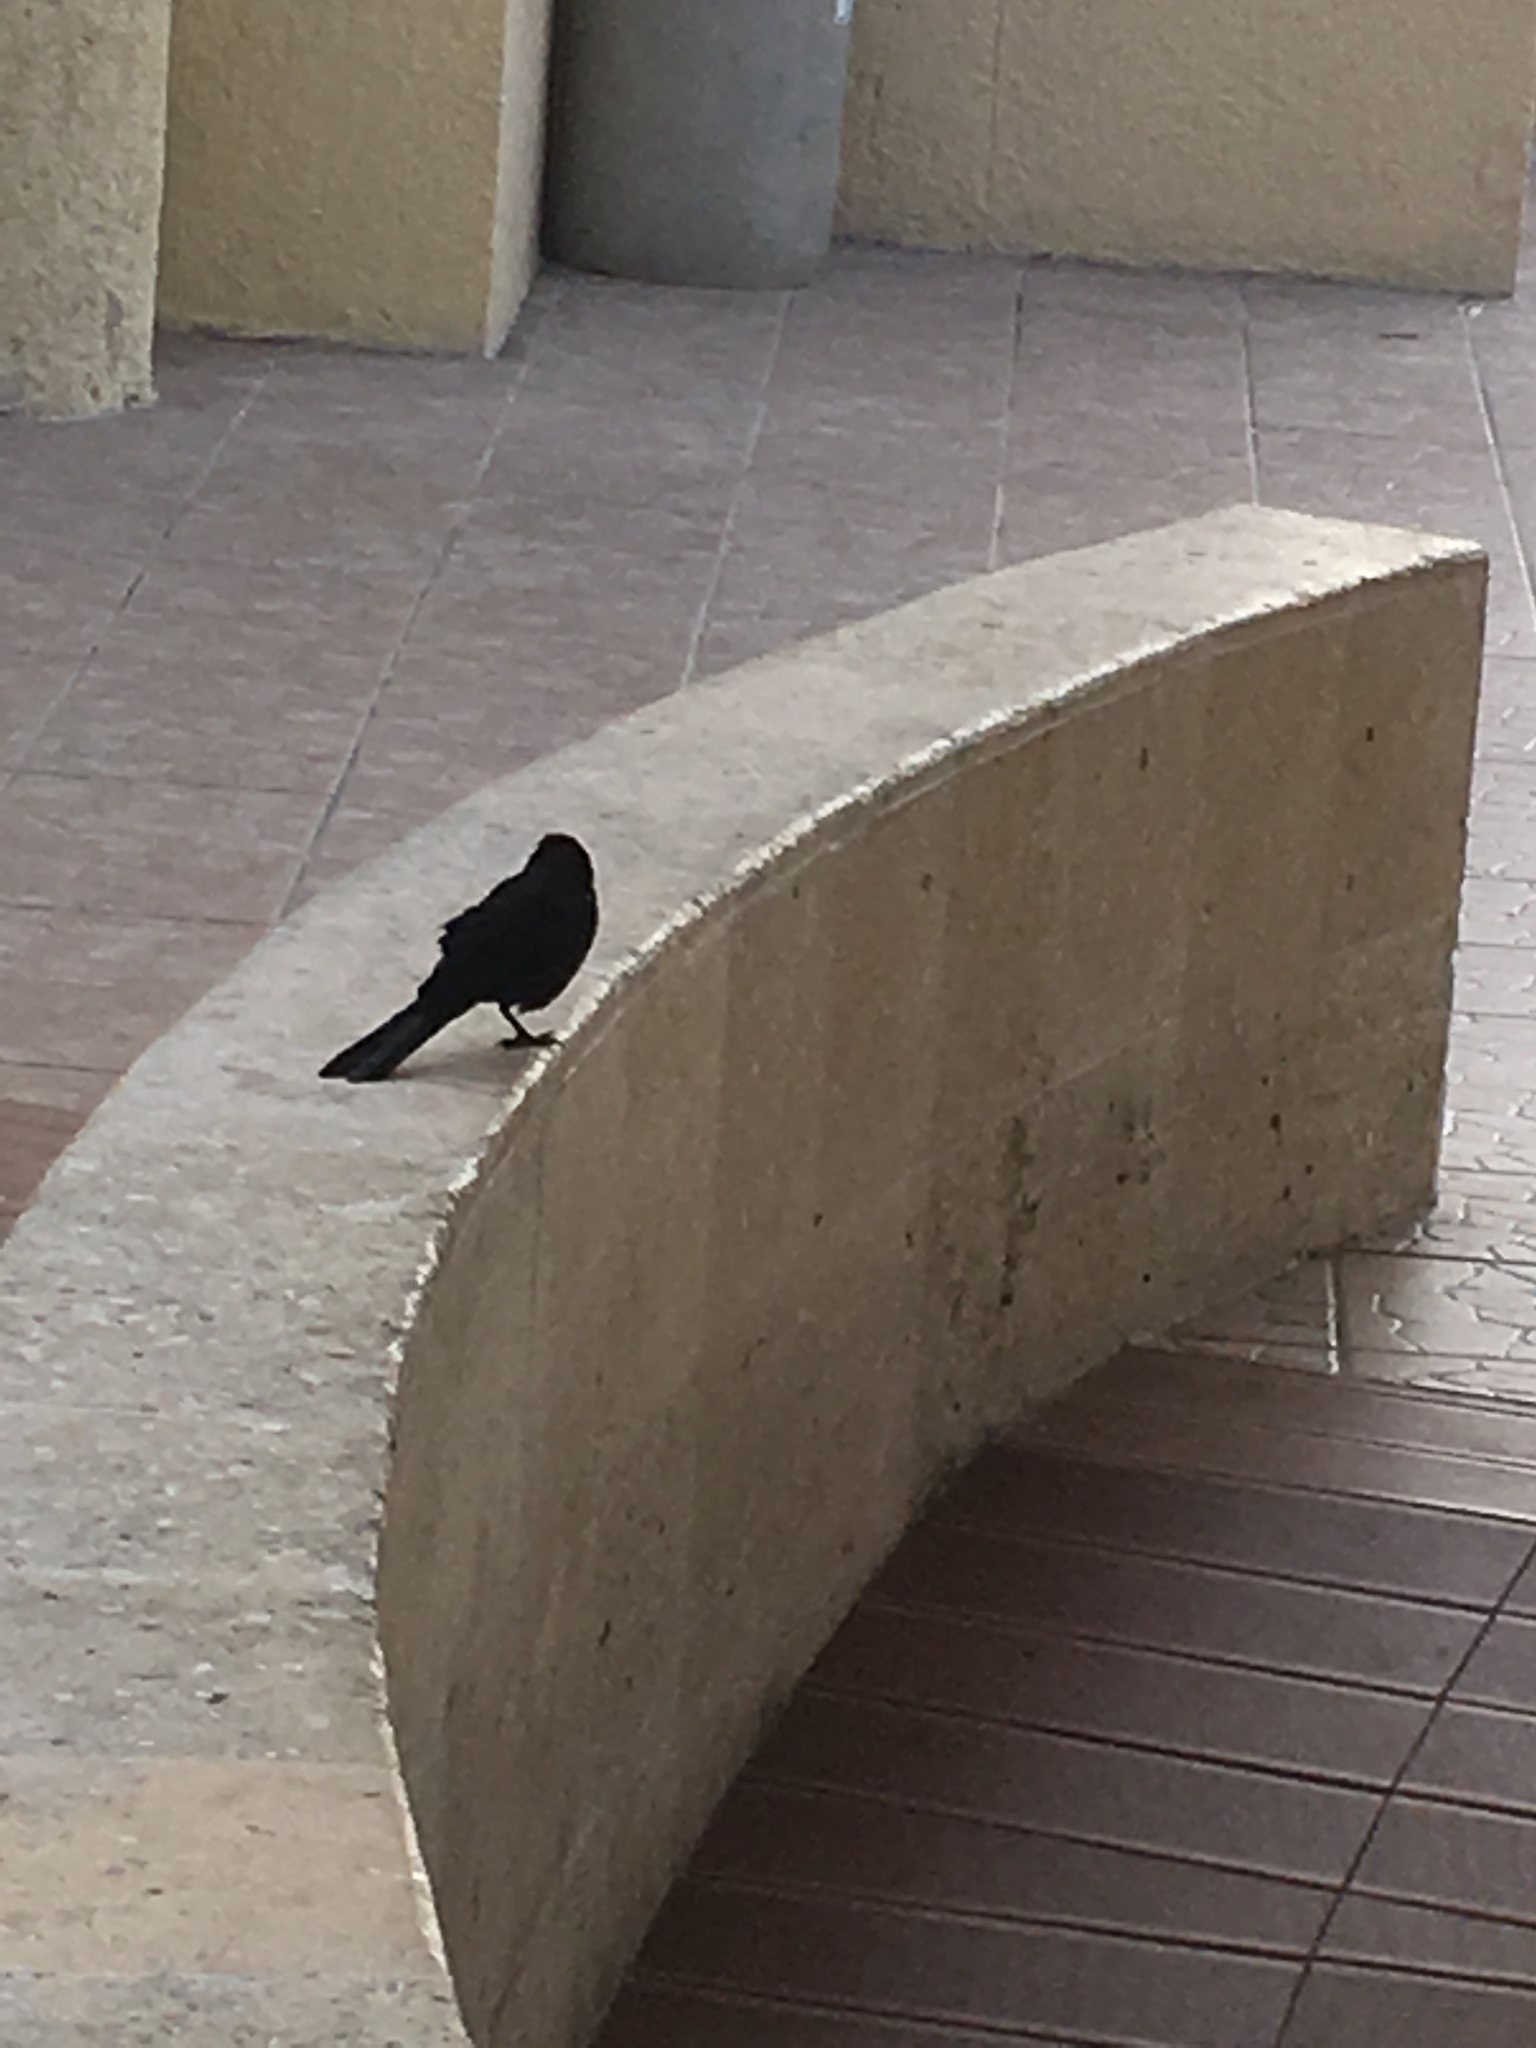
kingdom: Animalia
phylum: Chordata
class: Aves
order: Passeriformes
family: Icteridae
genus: Quiscalus
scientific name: Quiscalus mexicanus
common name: Great-tailed grackle
